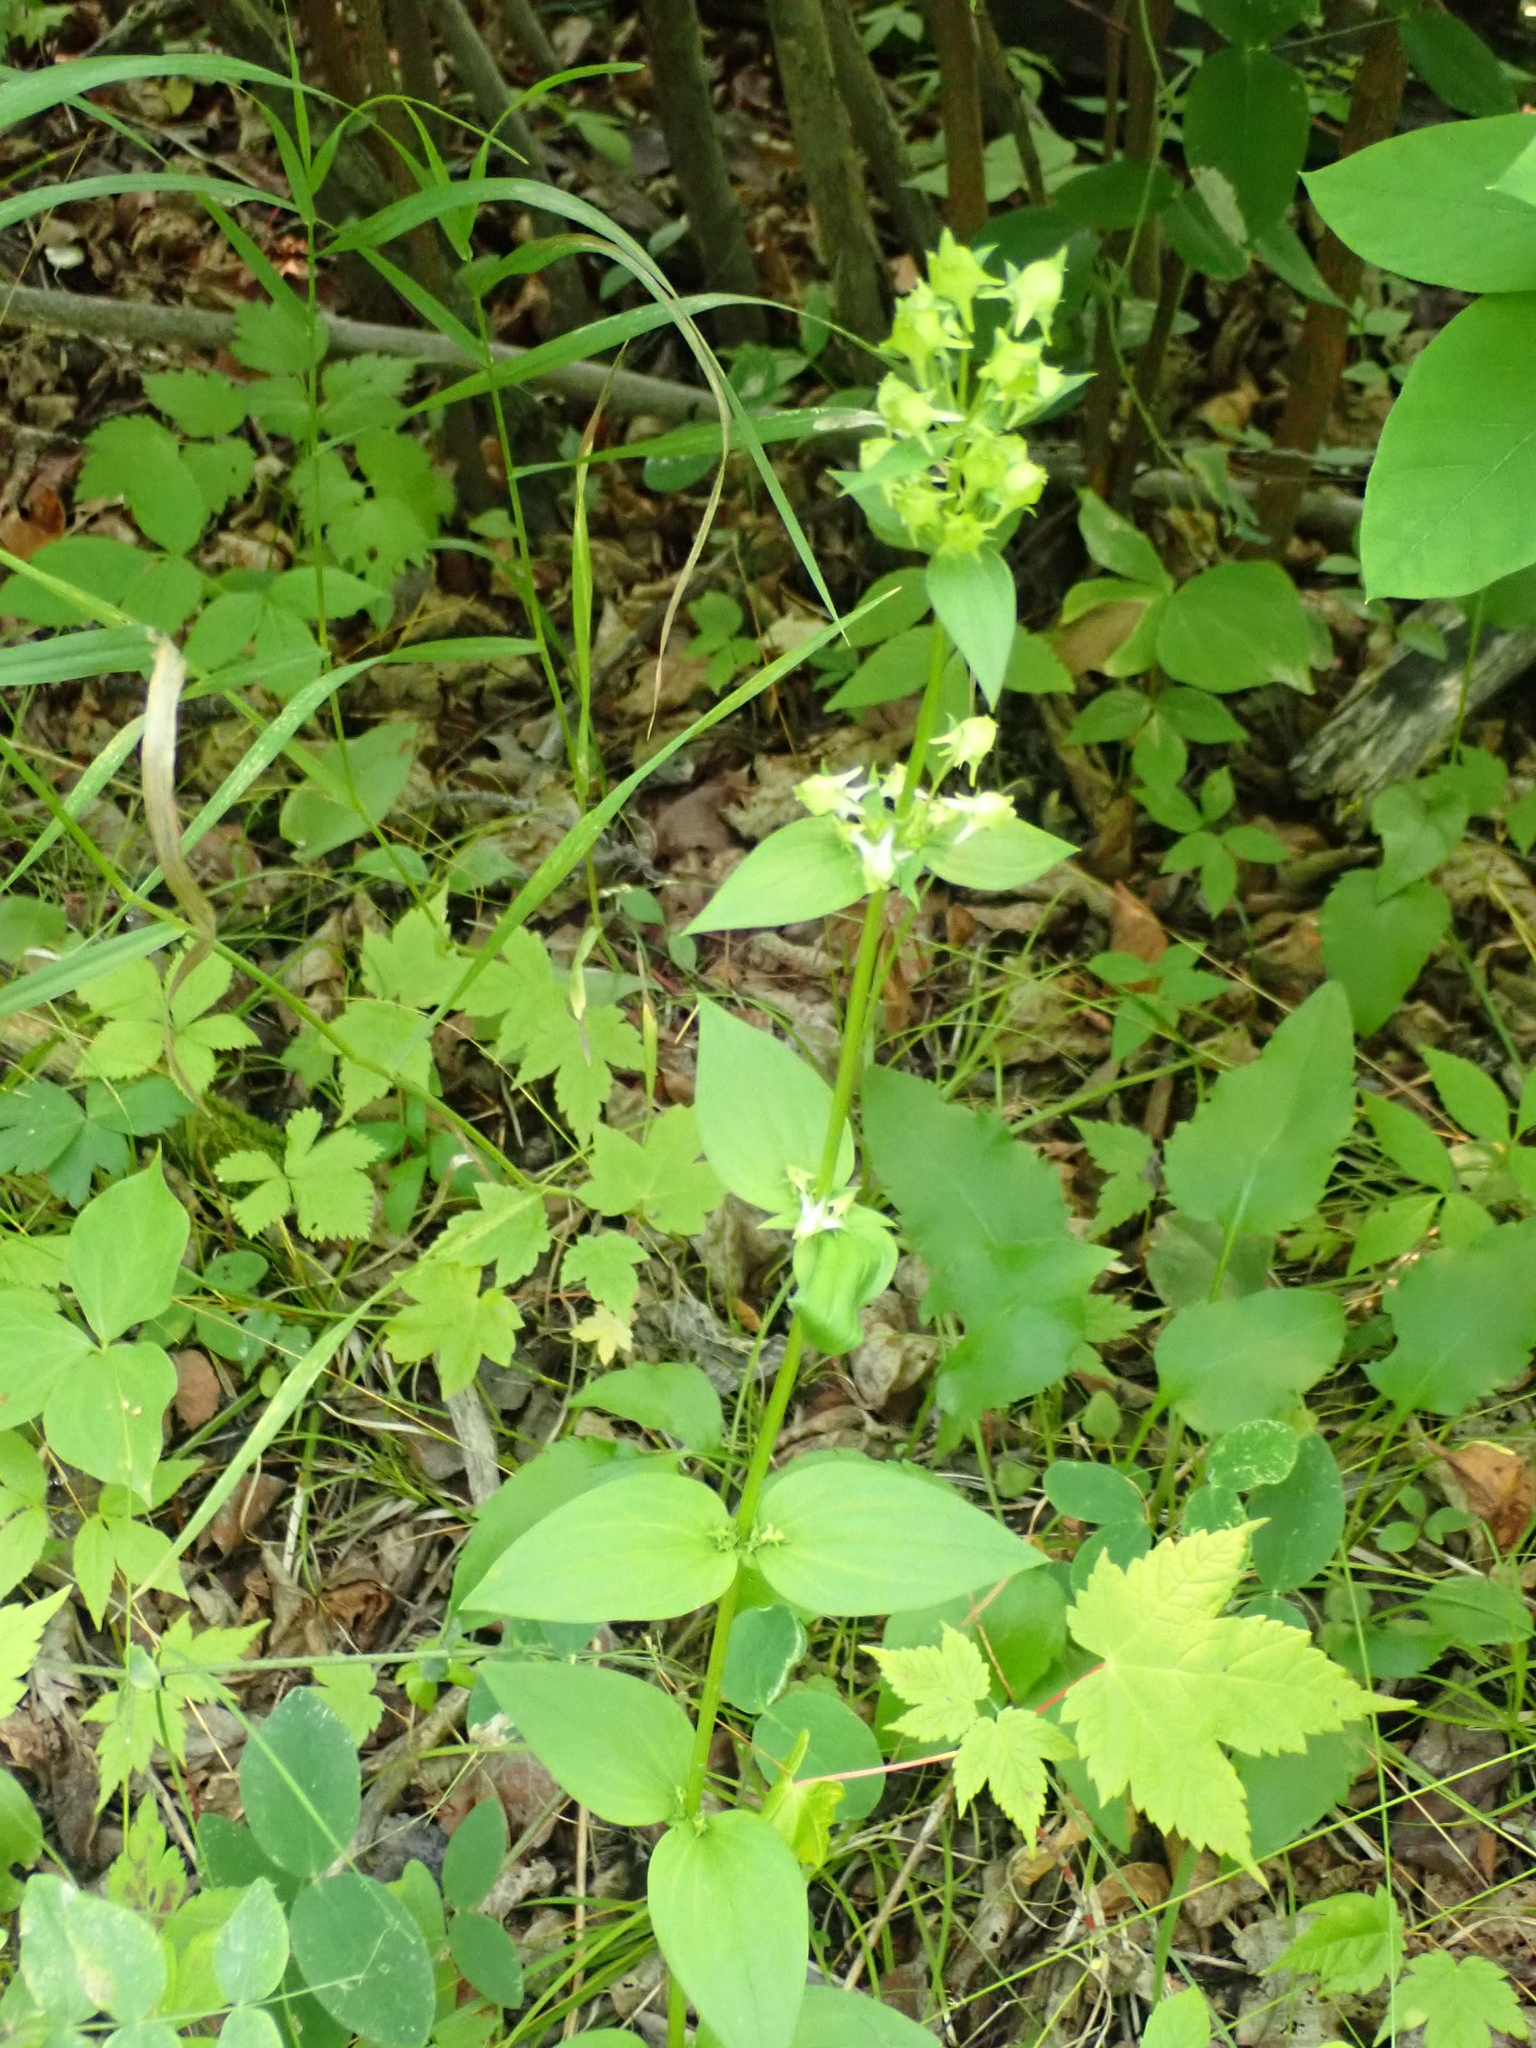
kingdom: Plantae
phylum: Tracheophyta
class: Magnoliopsida
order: Gentianales
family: Gentianaceae
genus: Halenia
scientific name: Halenia deflexa
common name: American spurred gentian
